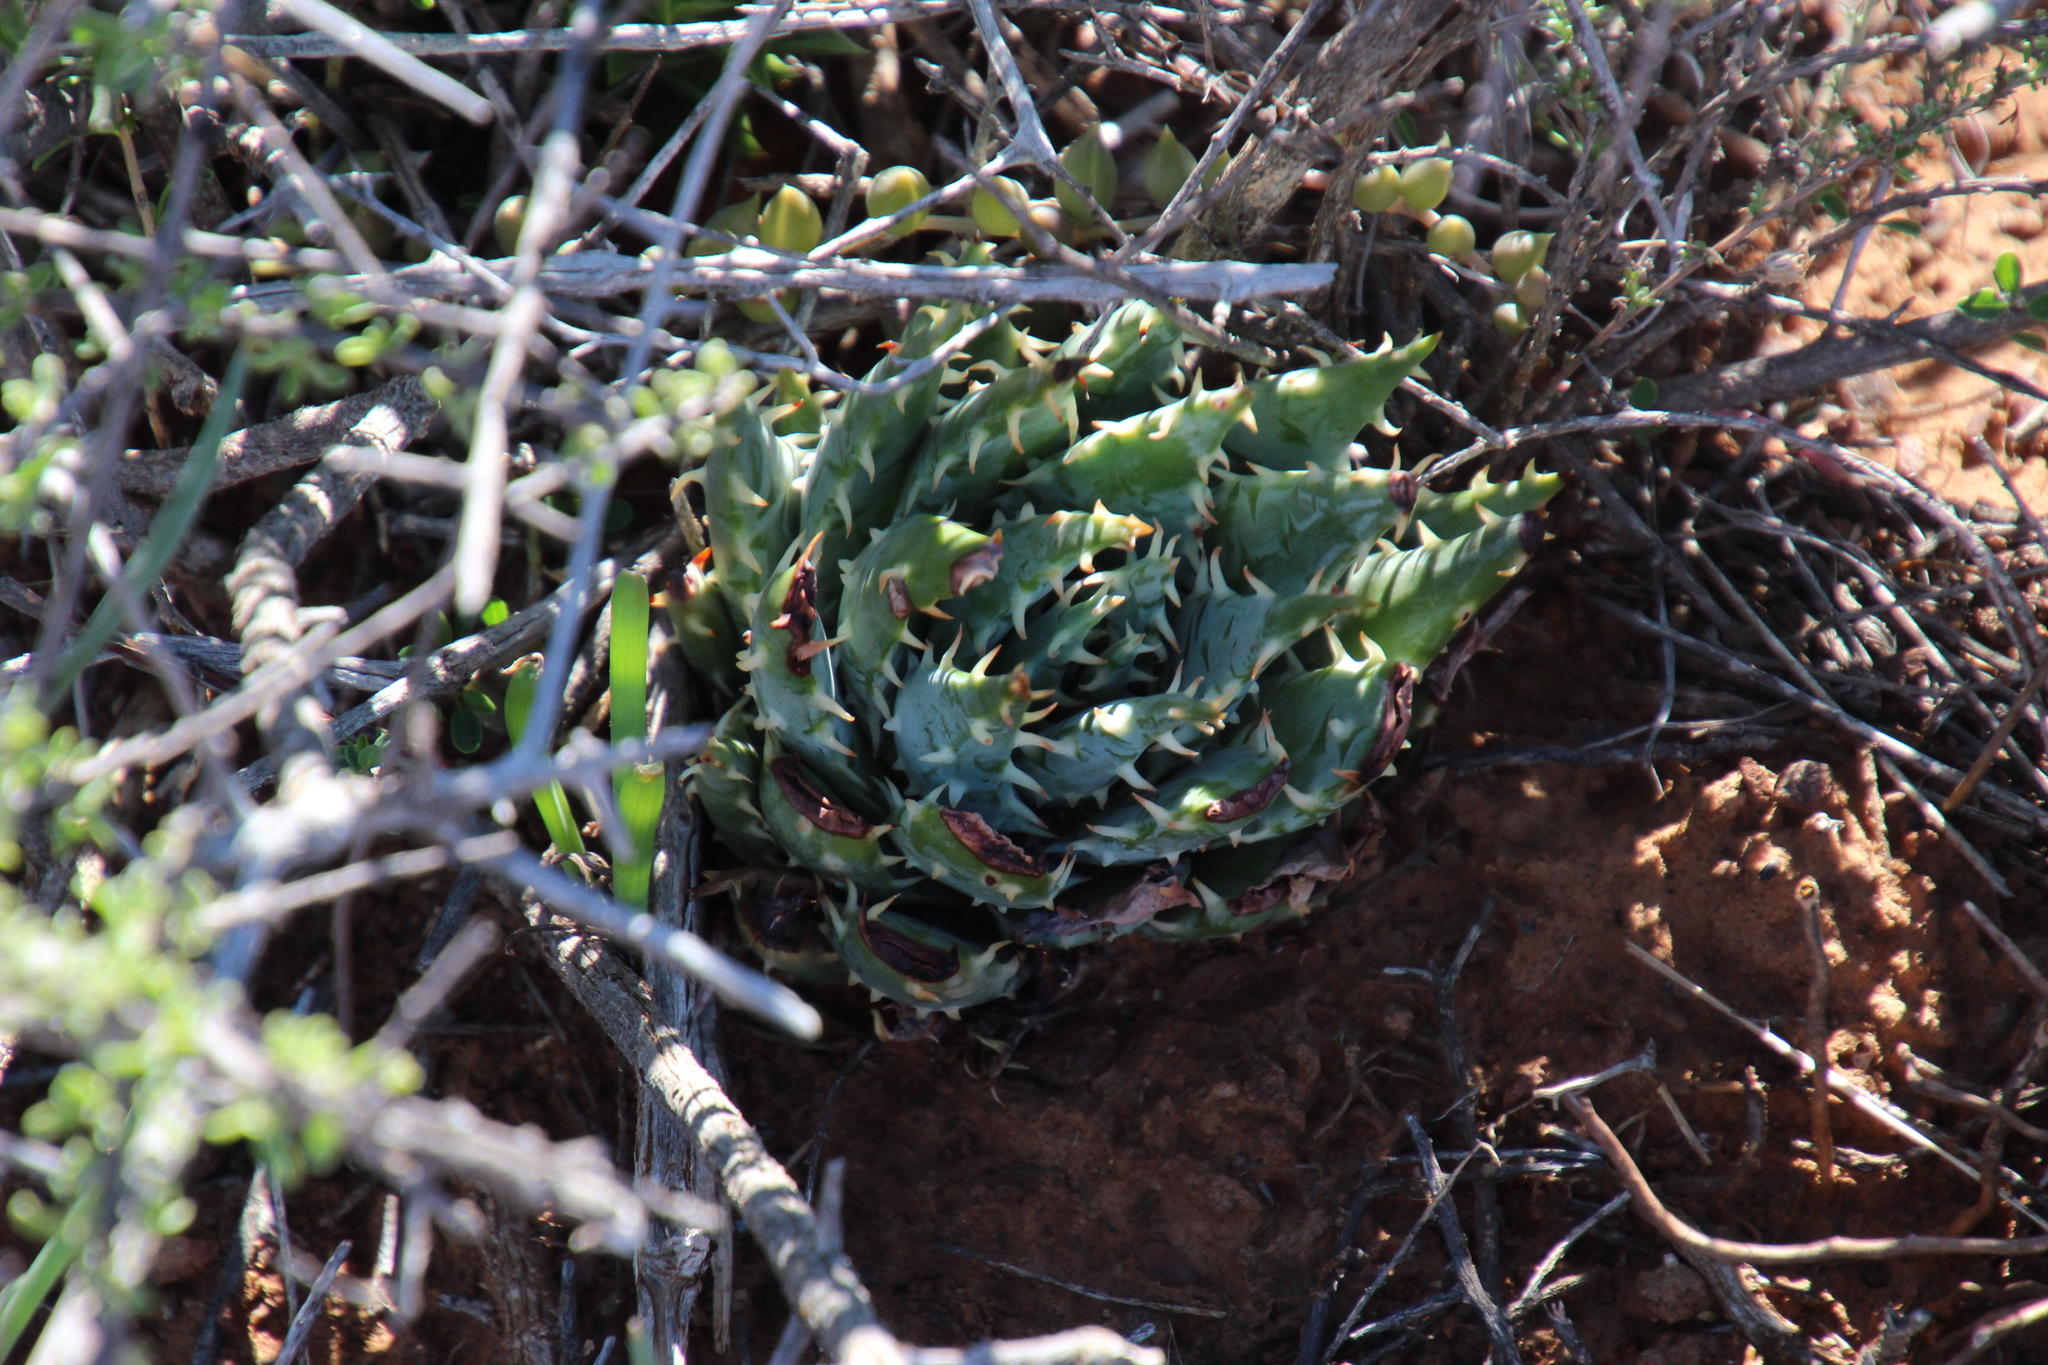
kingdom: Plantae
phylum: Tracheophyta
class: Liliopsida
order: Asparagales
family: Asphodelaceae
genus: Aloe
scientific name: Aloe longistyla
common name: Karoo aloe
